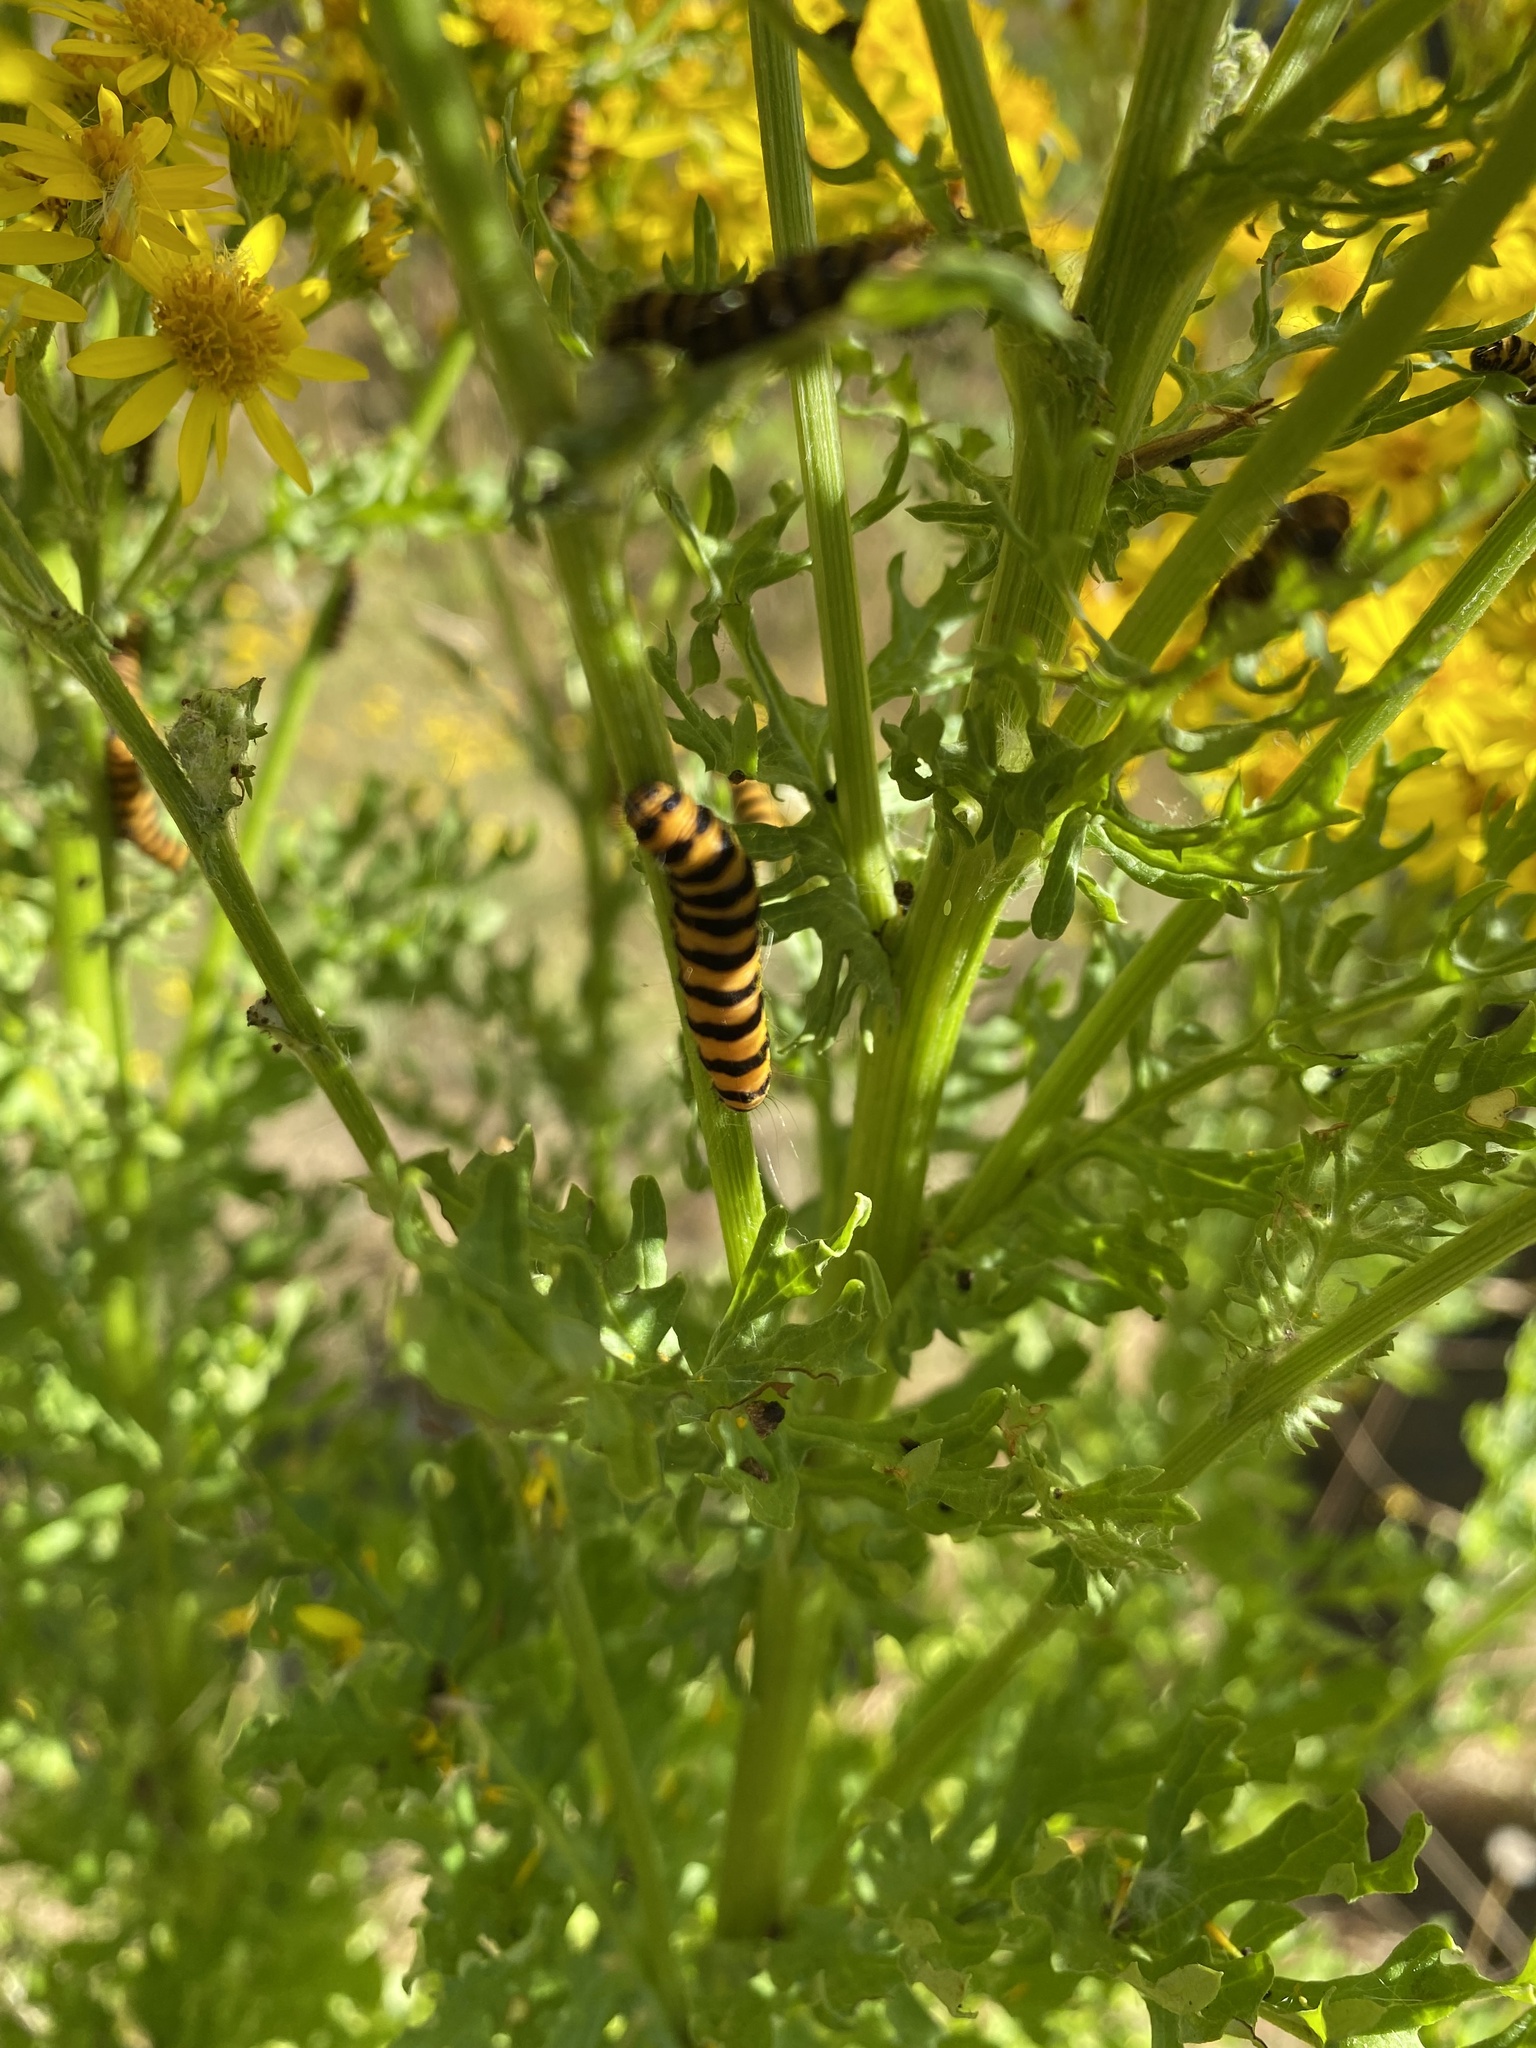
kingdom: Animalia
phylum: Arthropoda
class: Insecta
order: Lepidoptera
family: Erebidae
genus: Tyria
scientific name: Tyria jacobaeae
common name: Cinnabar
